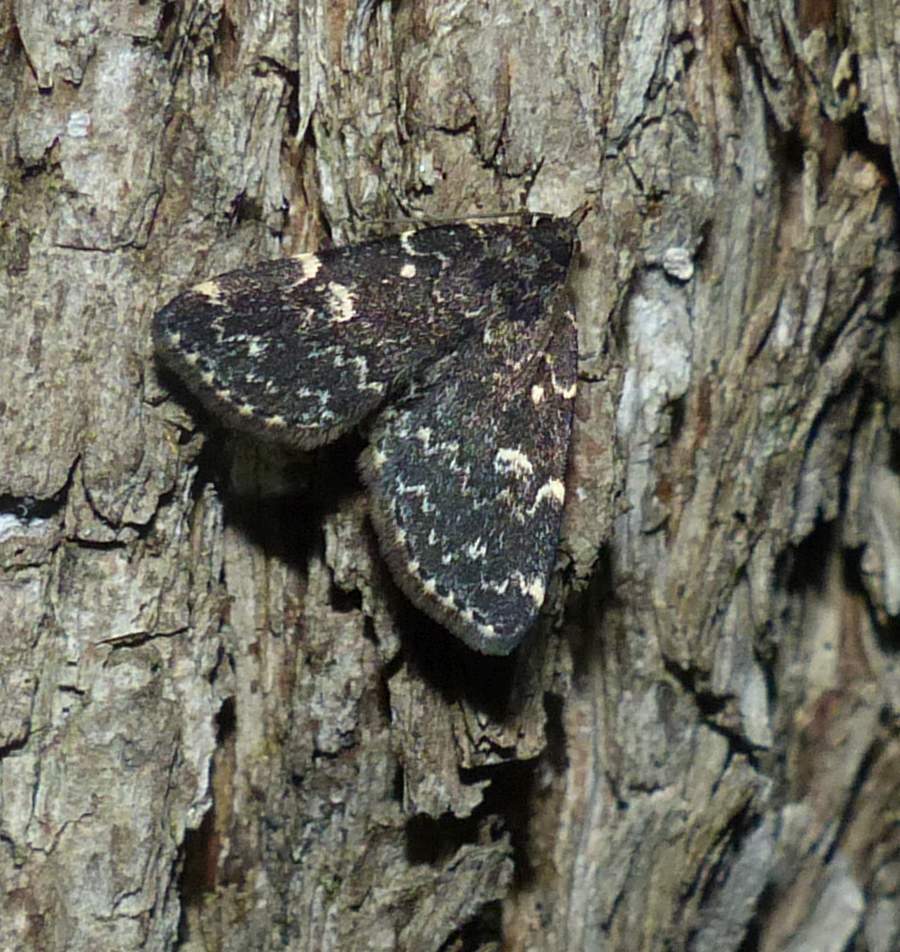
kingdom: Animalia
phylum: Arthropoda
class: Insecta
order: Lepidoptera
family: Erebidae
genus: Idia
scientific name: Idia scobialis
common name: Smoky idia moth
